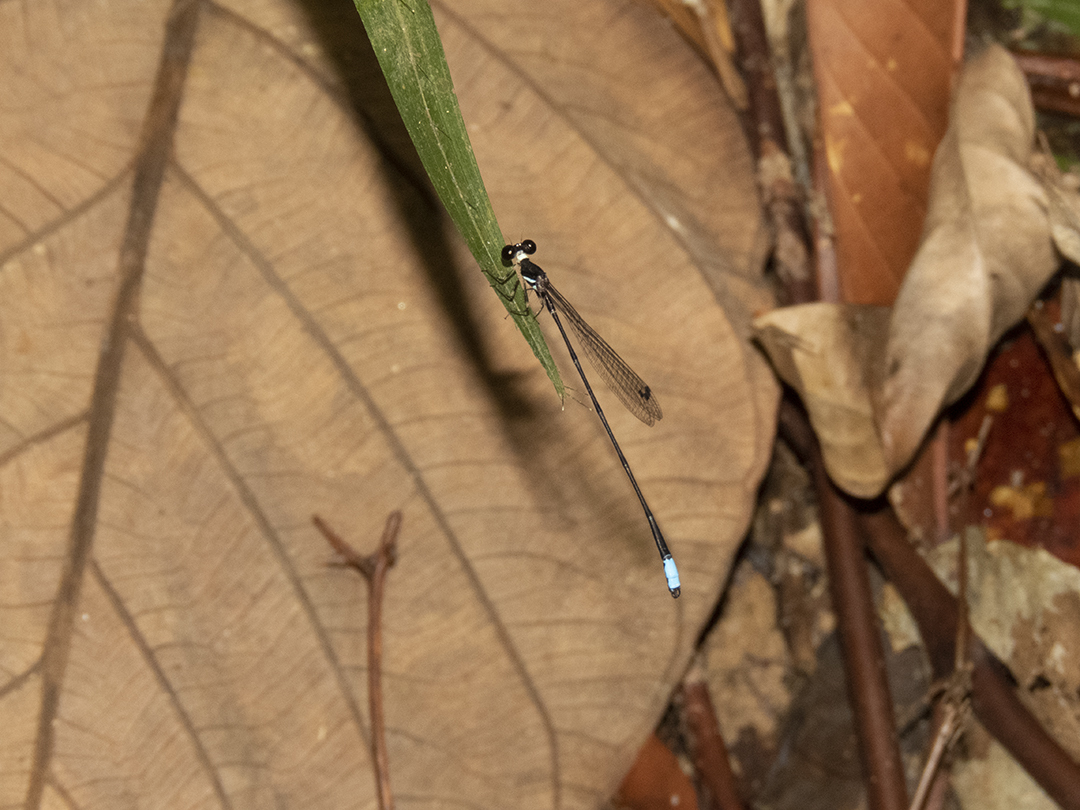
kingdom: Animalia
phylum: Arthropoda
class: Insecta
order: Odonata
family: Platystictidae
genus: Drepanosticta
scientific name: Drepanosticta fontinalis
